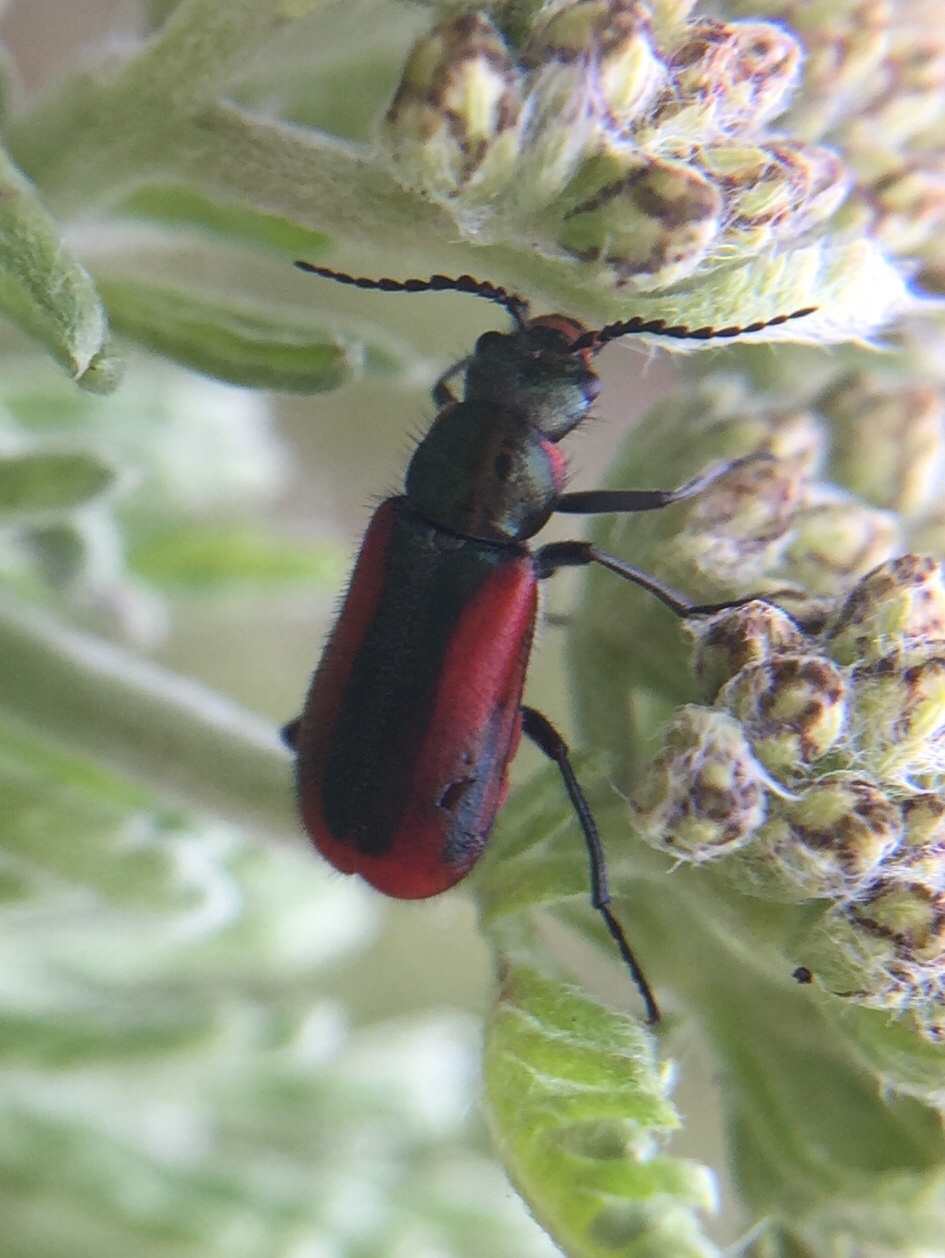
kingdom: Animalia
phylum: Arthropoda
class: Insecta
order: Coleoptera
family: Melyridae
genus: Malachius
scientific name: Malachius rubidus
